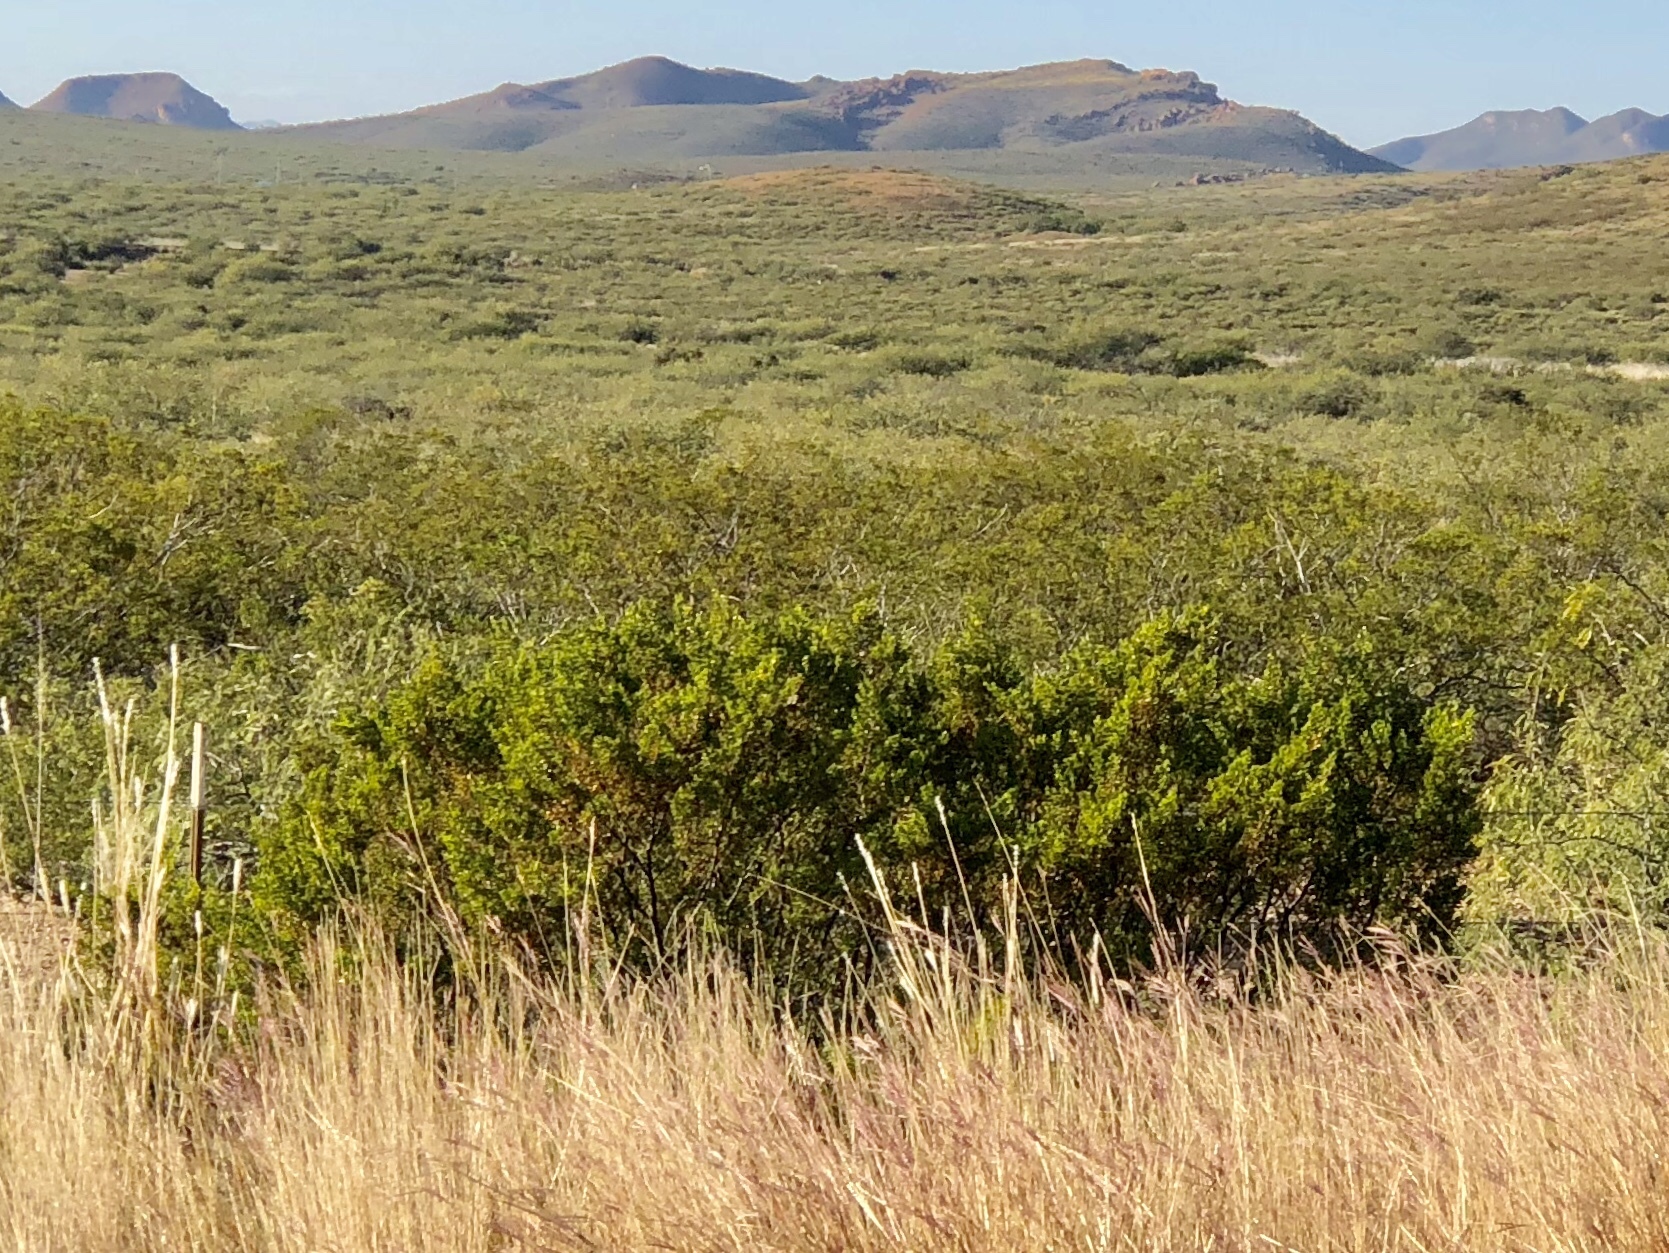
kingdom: Plantae
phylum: Tracheophyta
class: Magnoliopsida
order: Zygophyllales
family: Zygophyllaceae
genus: Larrea
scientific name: Larrea tridentata
